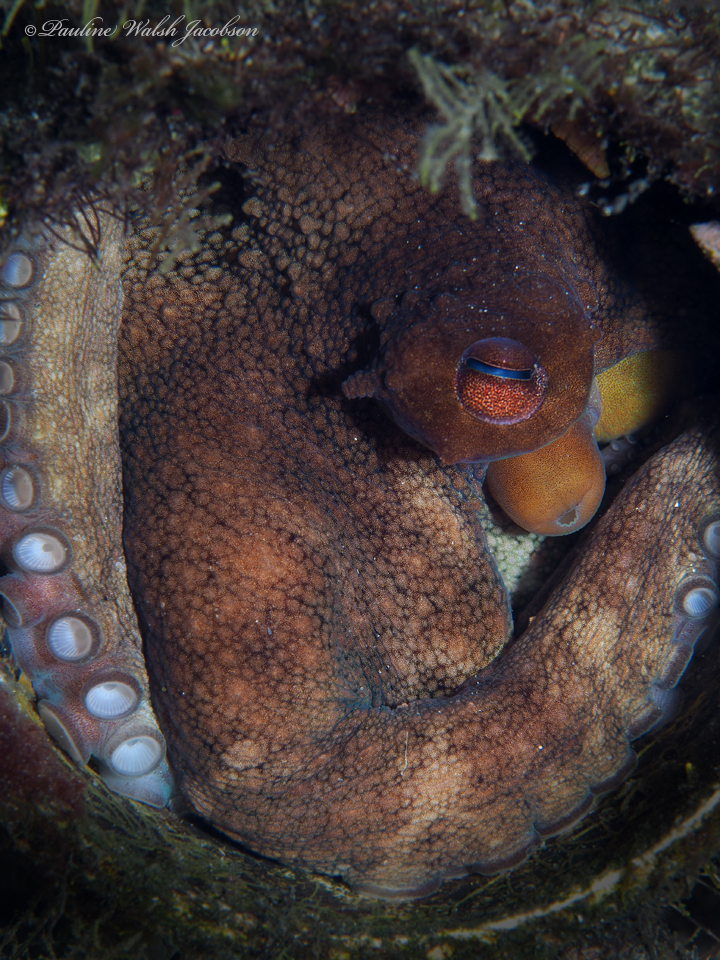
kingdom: Animalia
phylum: Mollusca
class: Cephalopoda
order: Octopoda
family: Octopodidae
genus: Octopus
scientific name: Octopus americanus
